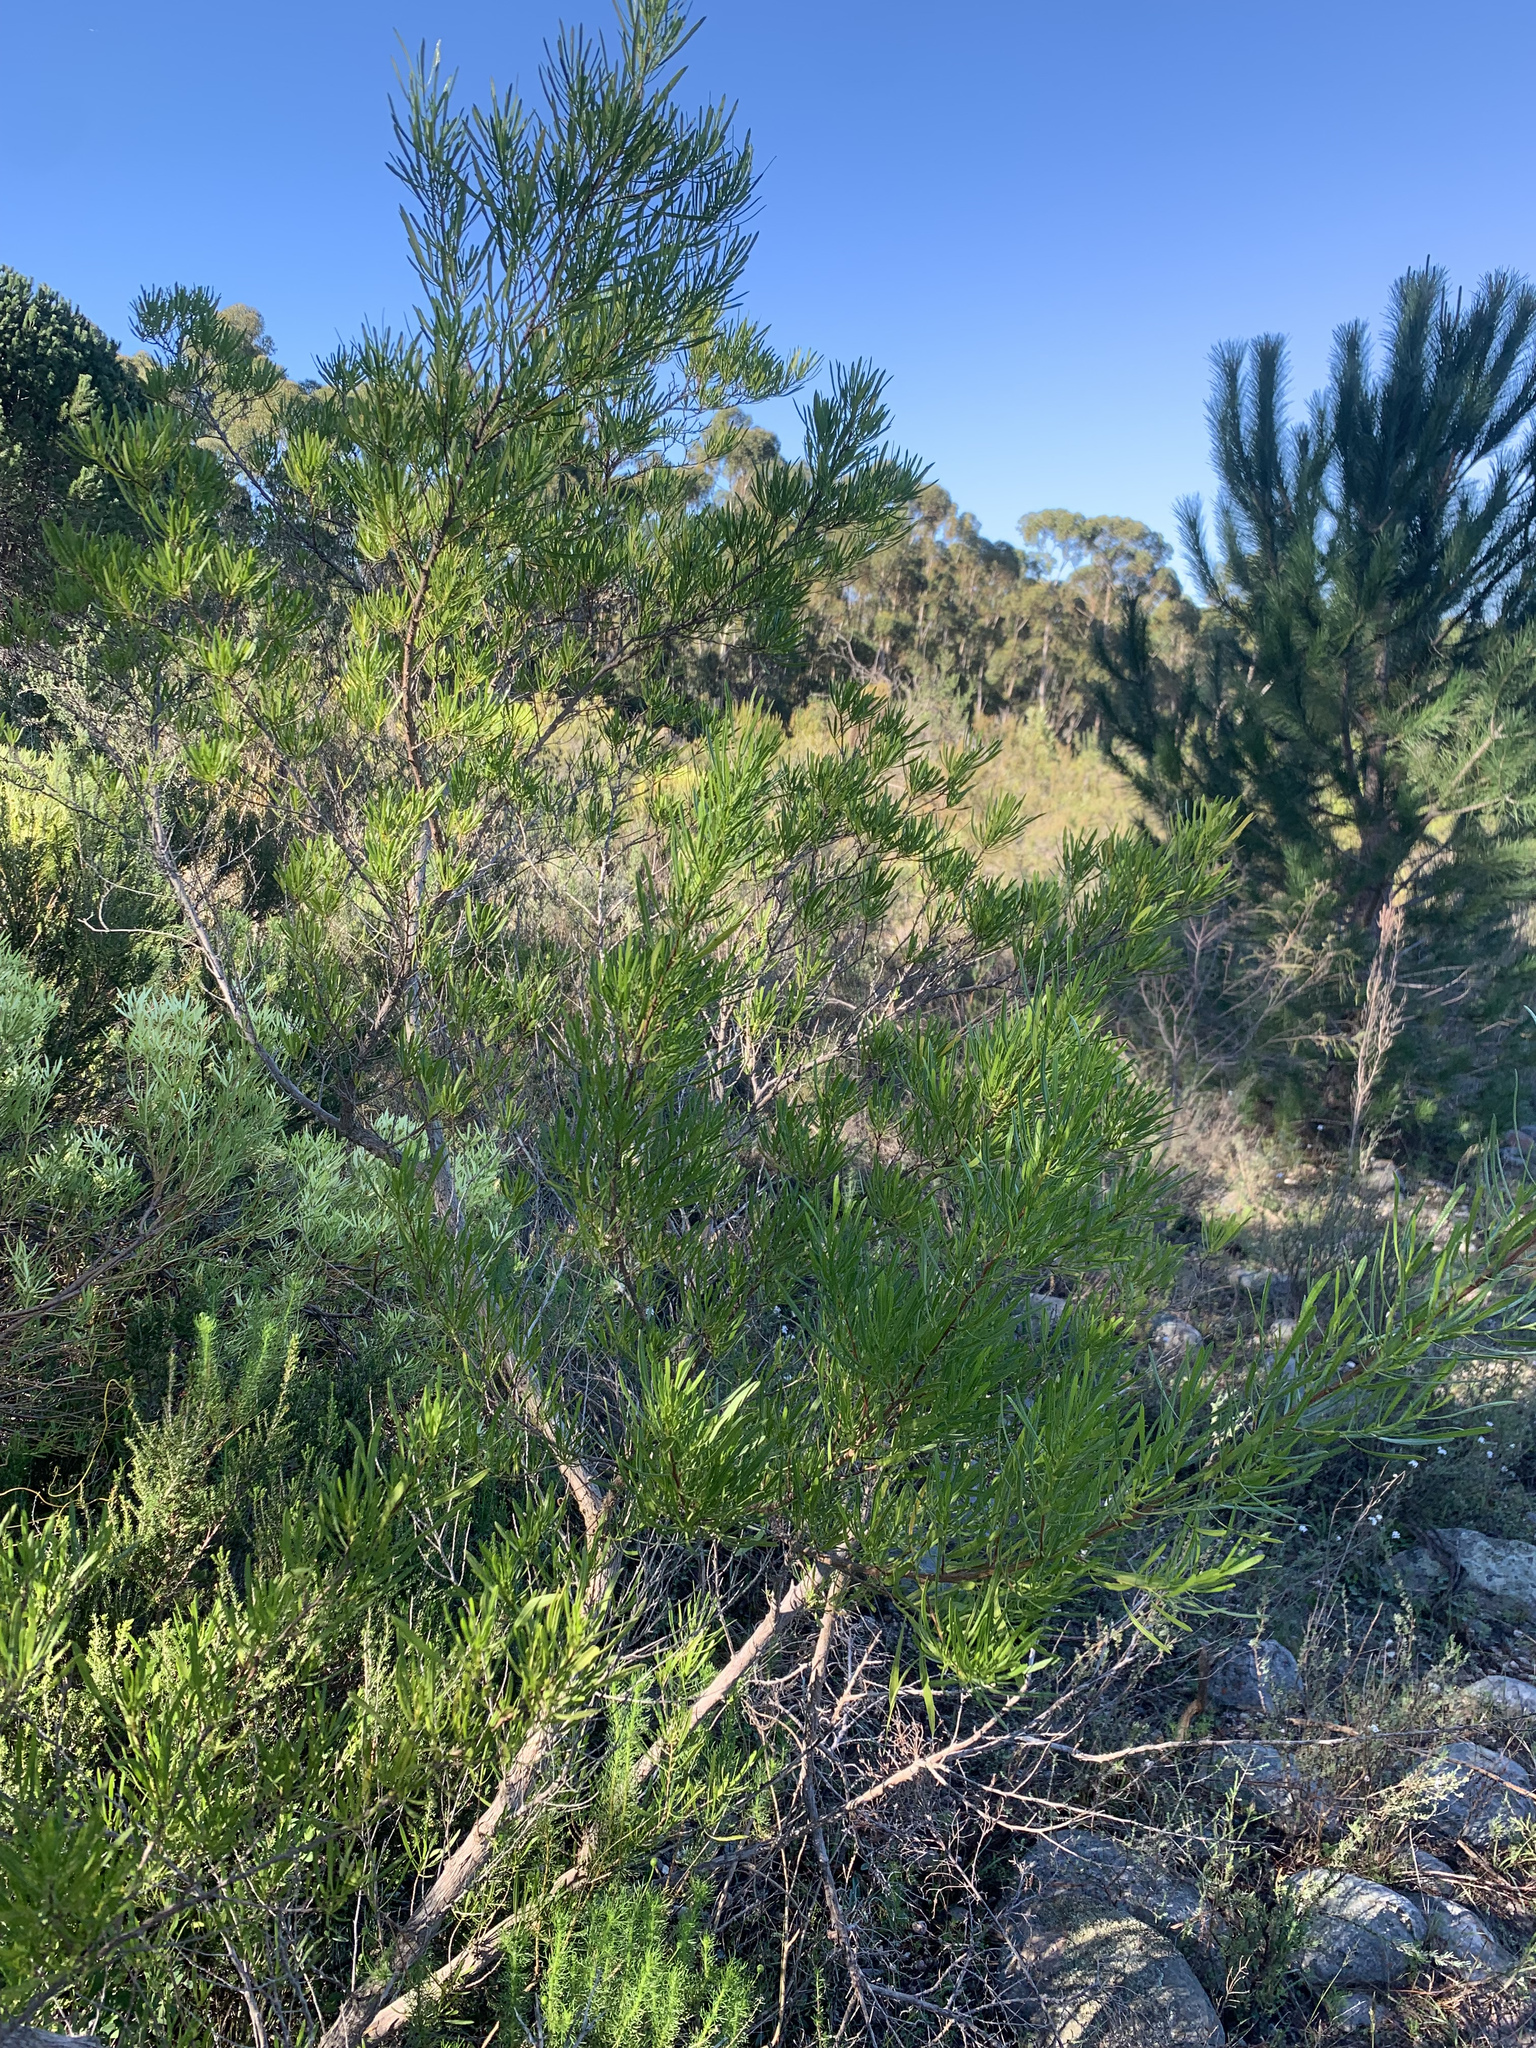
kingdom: Plantae
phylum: Tracheophyta
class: Magnoliopsida
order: Sapindales
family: Sapindaceae
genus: Dodonaea
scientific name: Dodonaea viscosa
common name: Hopbush
